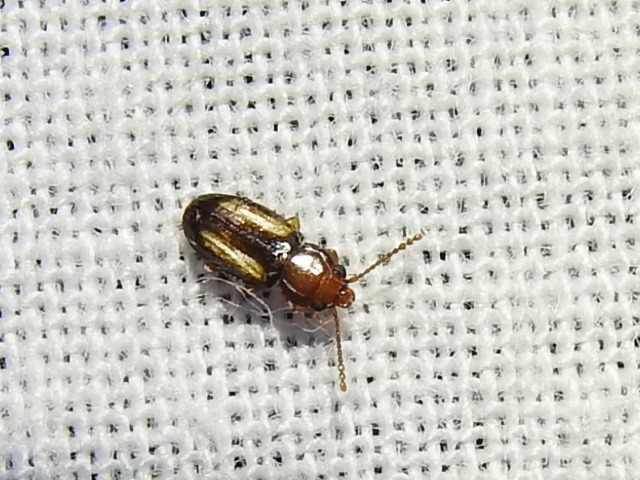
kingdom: Animalia
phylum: Arthropoda
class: Insecta
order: Coleoptera
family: Laemophloeidae
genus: Laemophloeus
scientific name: Laemophloeus terminalis
